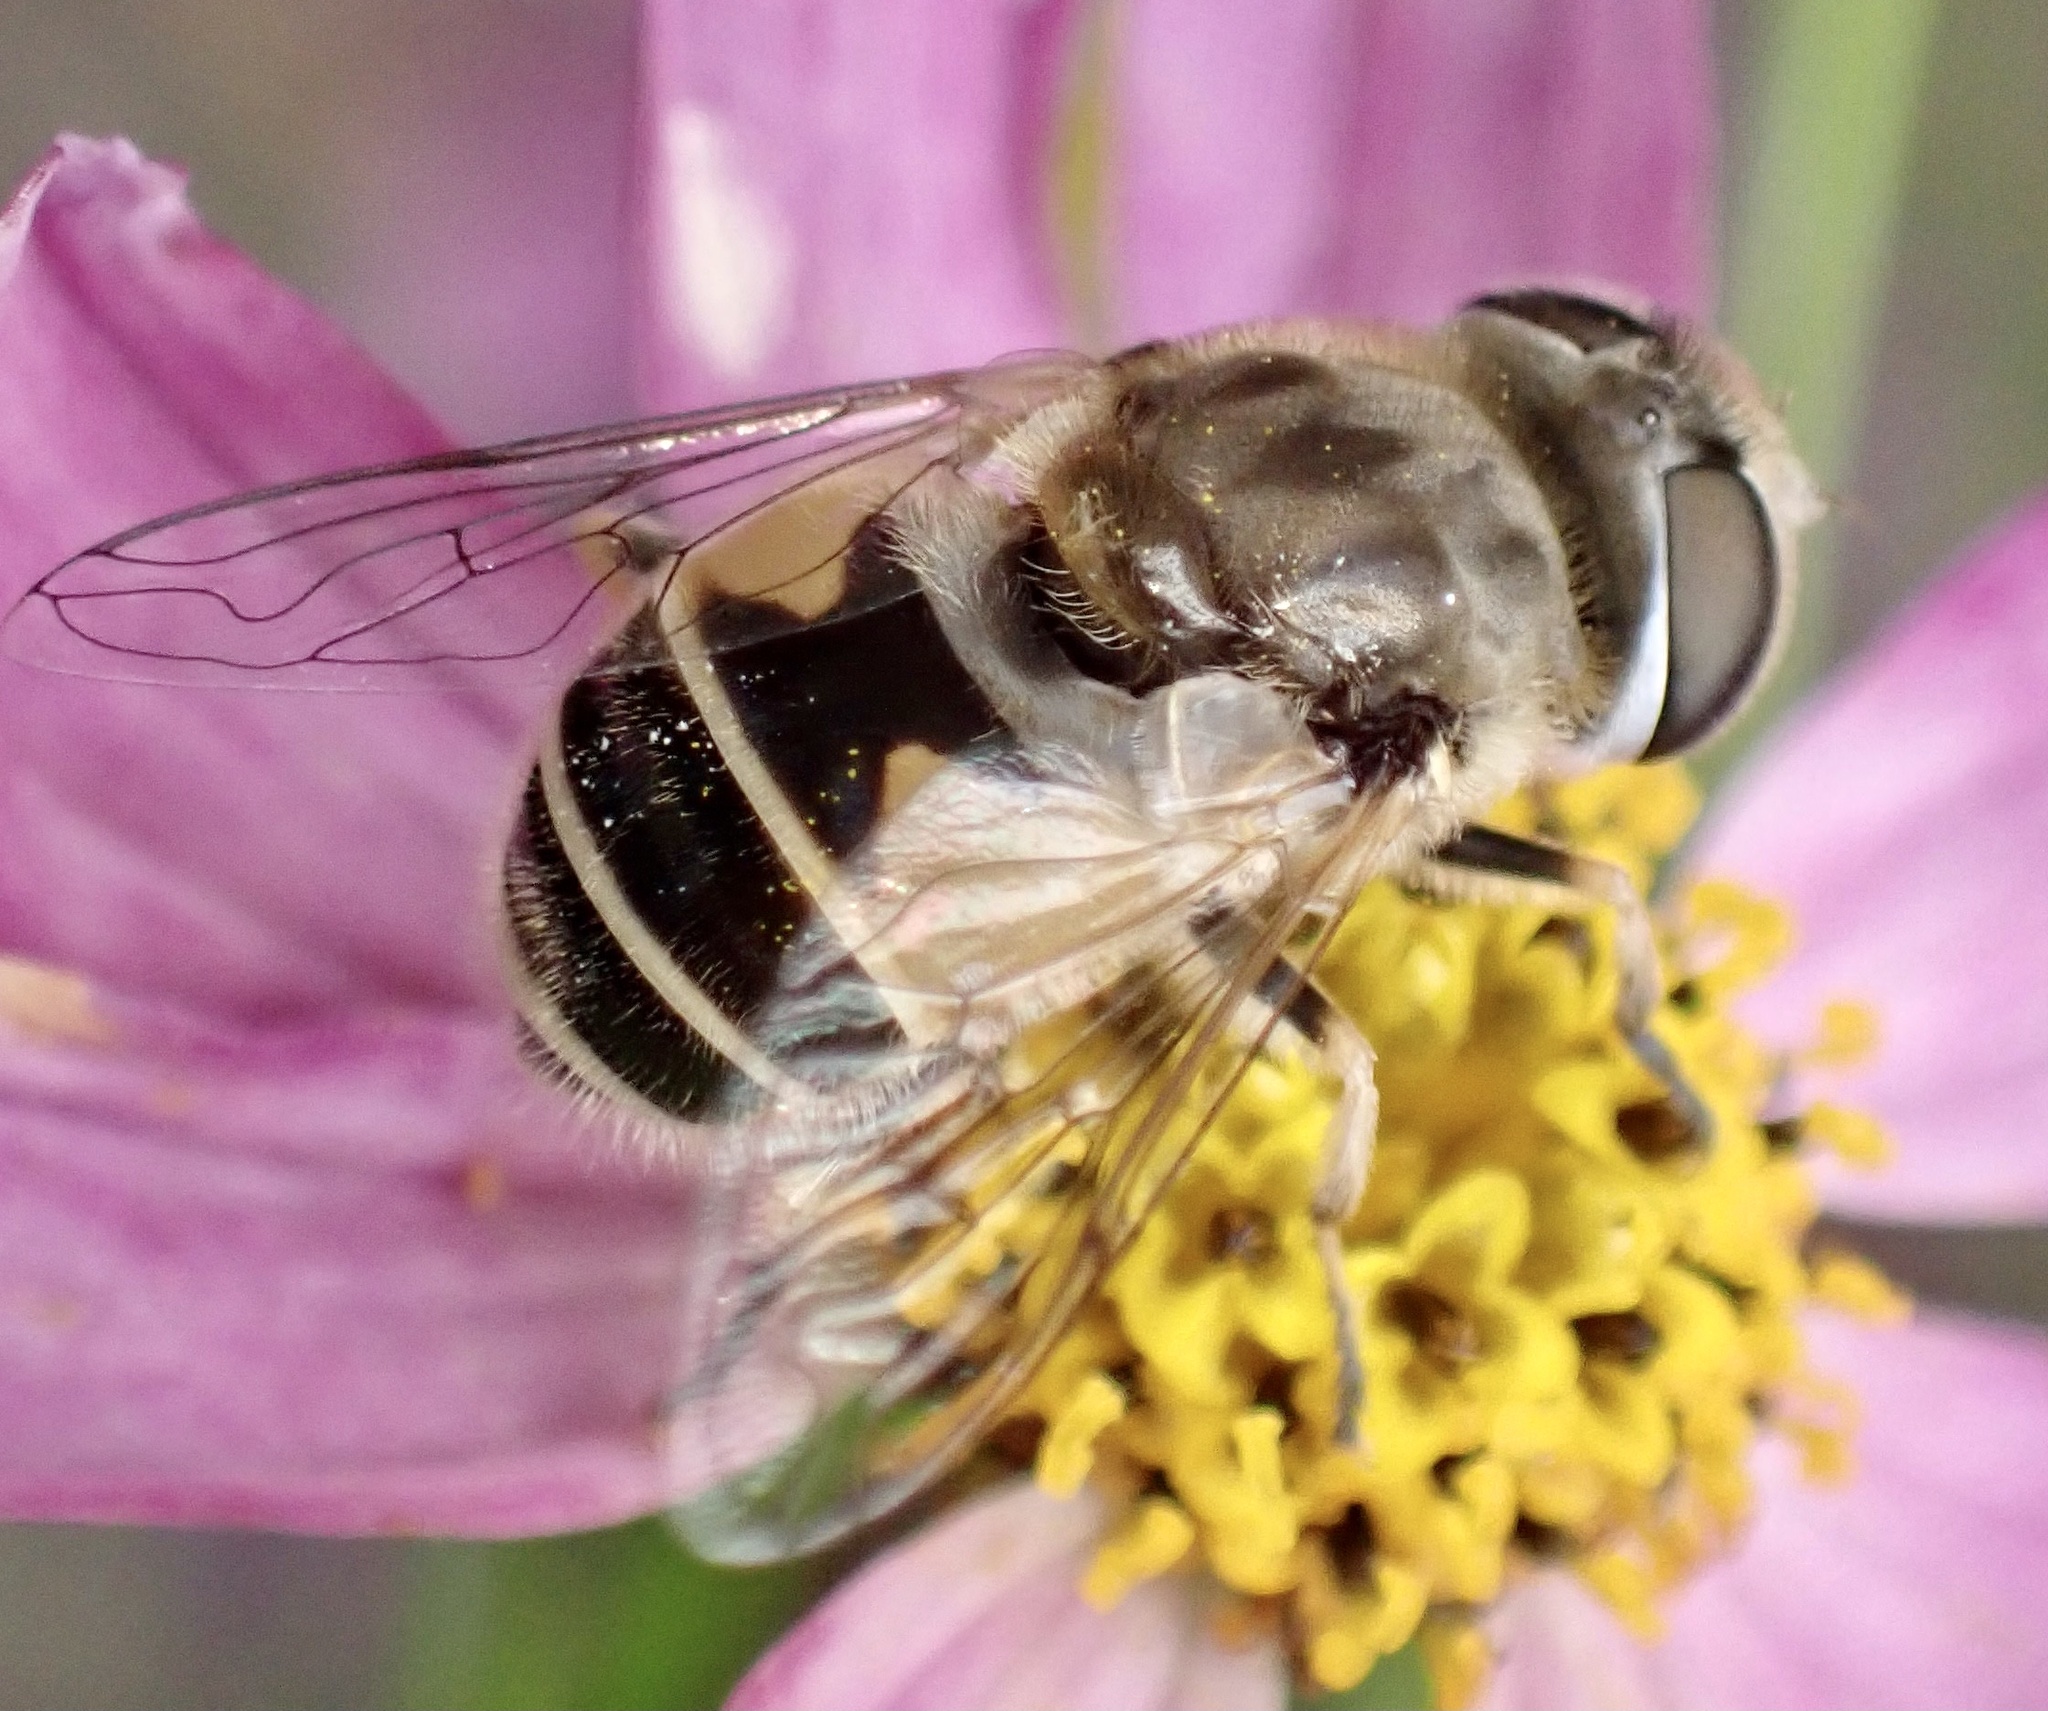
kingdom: Animalia
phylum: Arthropoda
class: Insecta
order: Diptera
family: Syrphidae
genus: Eristalis
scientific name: Eristalis arbustorum
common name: Hover fly
